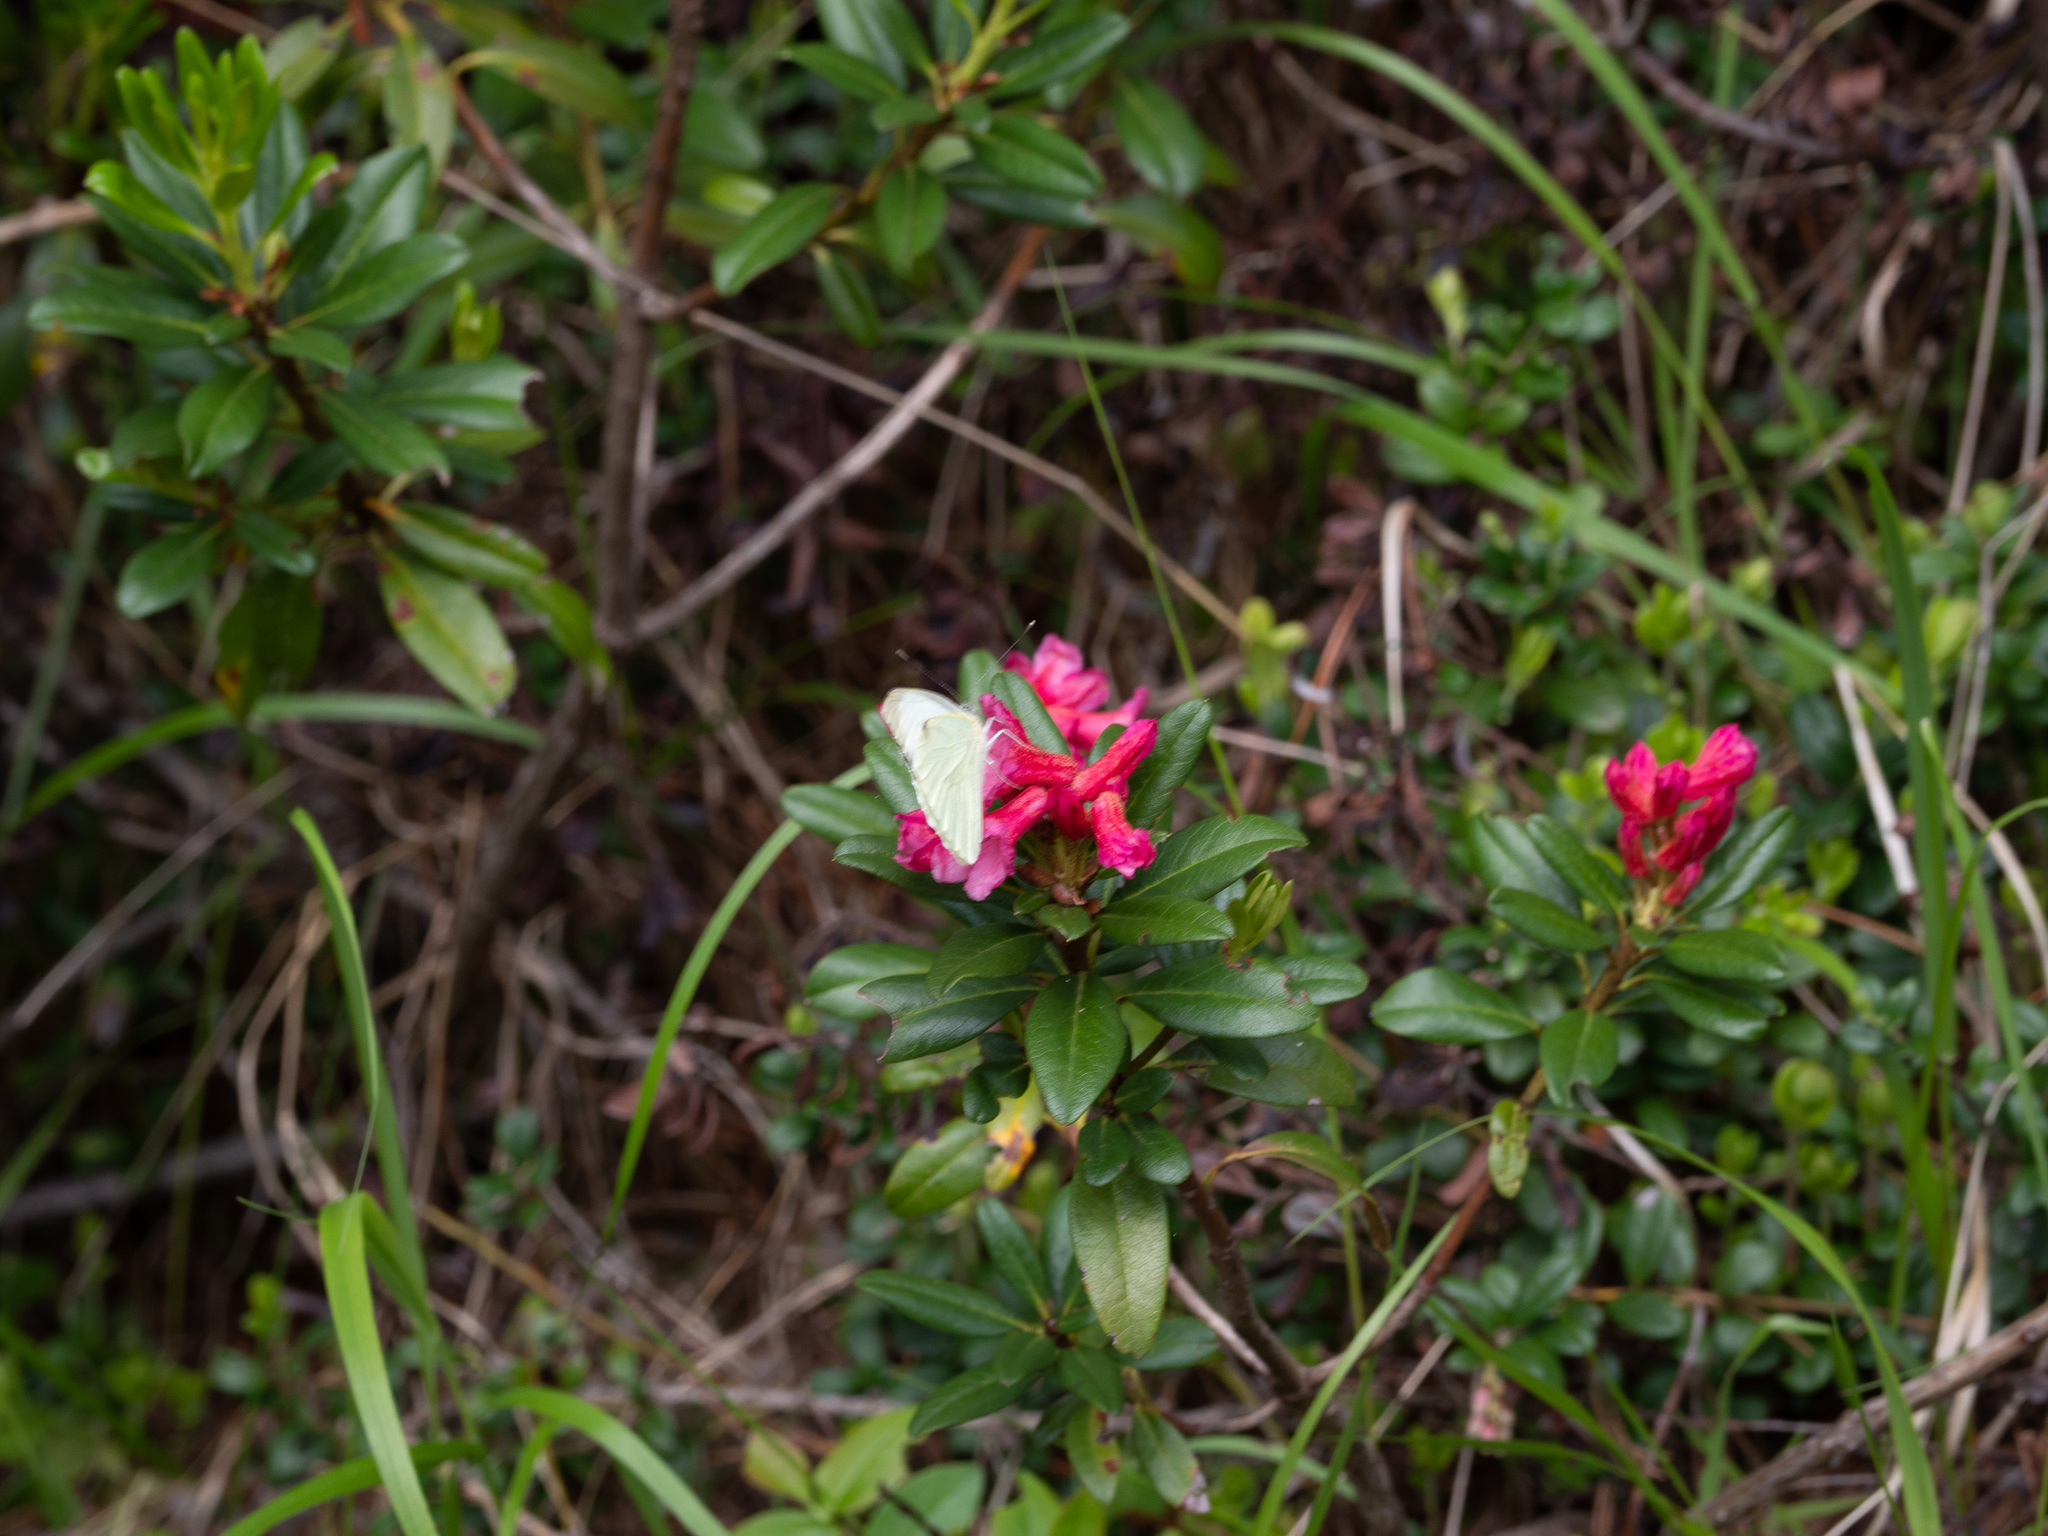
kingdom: Plantae
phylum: Tracheophyta
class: Magnoliopsida
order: Ericales
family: Ericaceae
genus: Rhododendron
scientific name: Rhododendron ferrugineum
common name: Alpenrose
